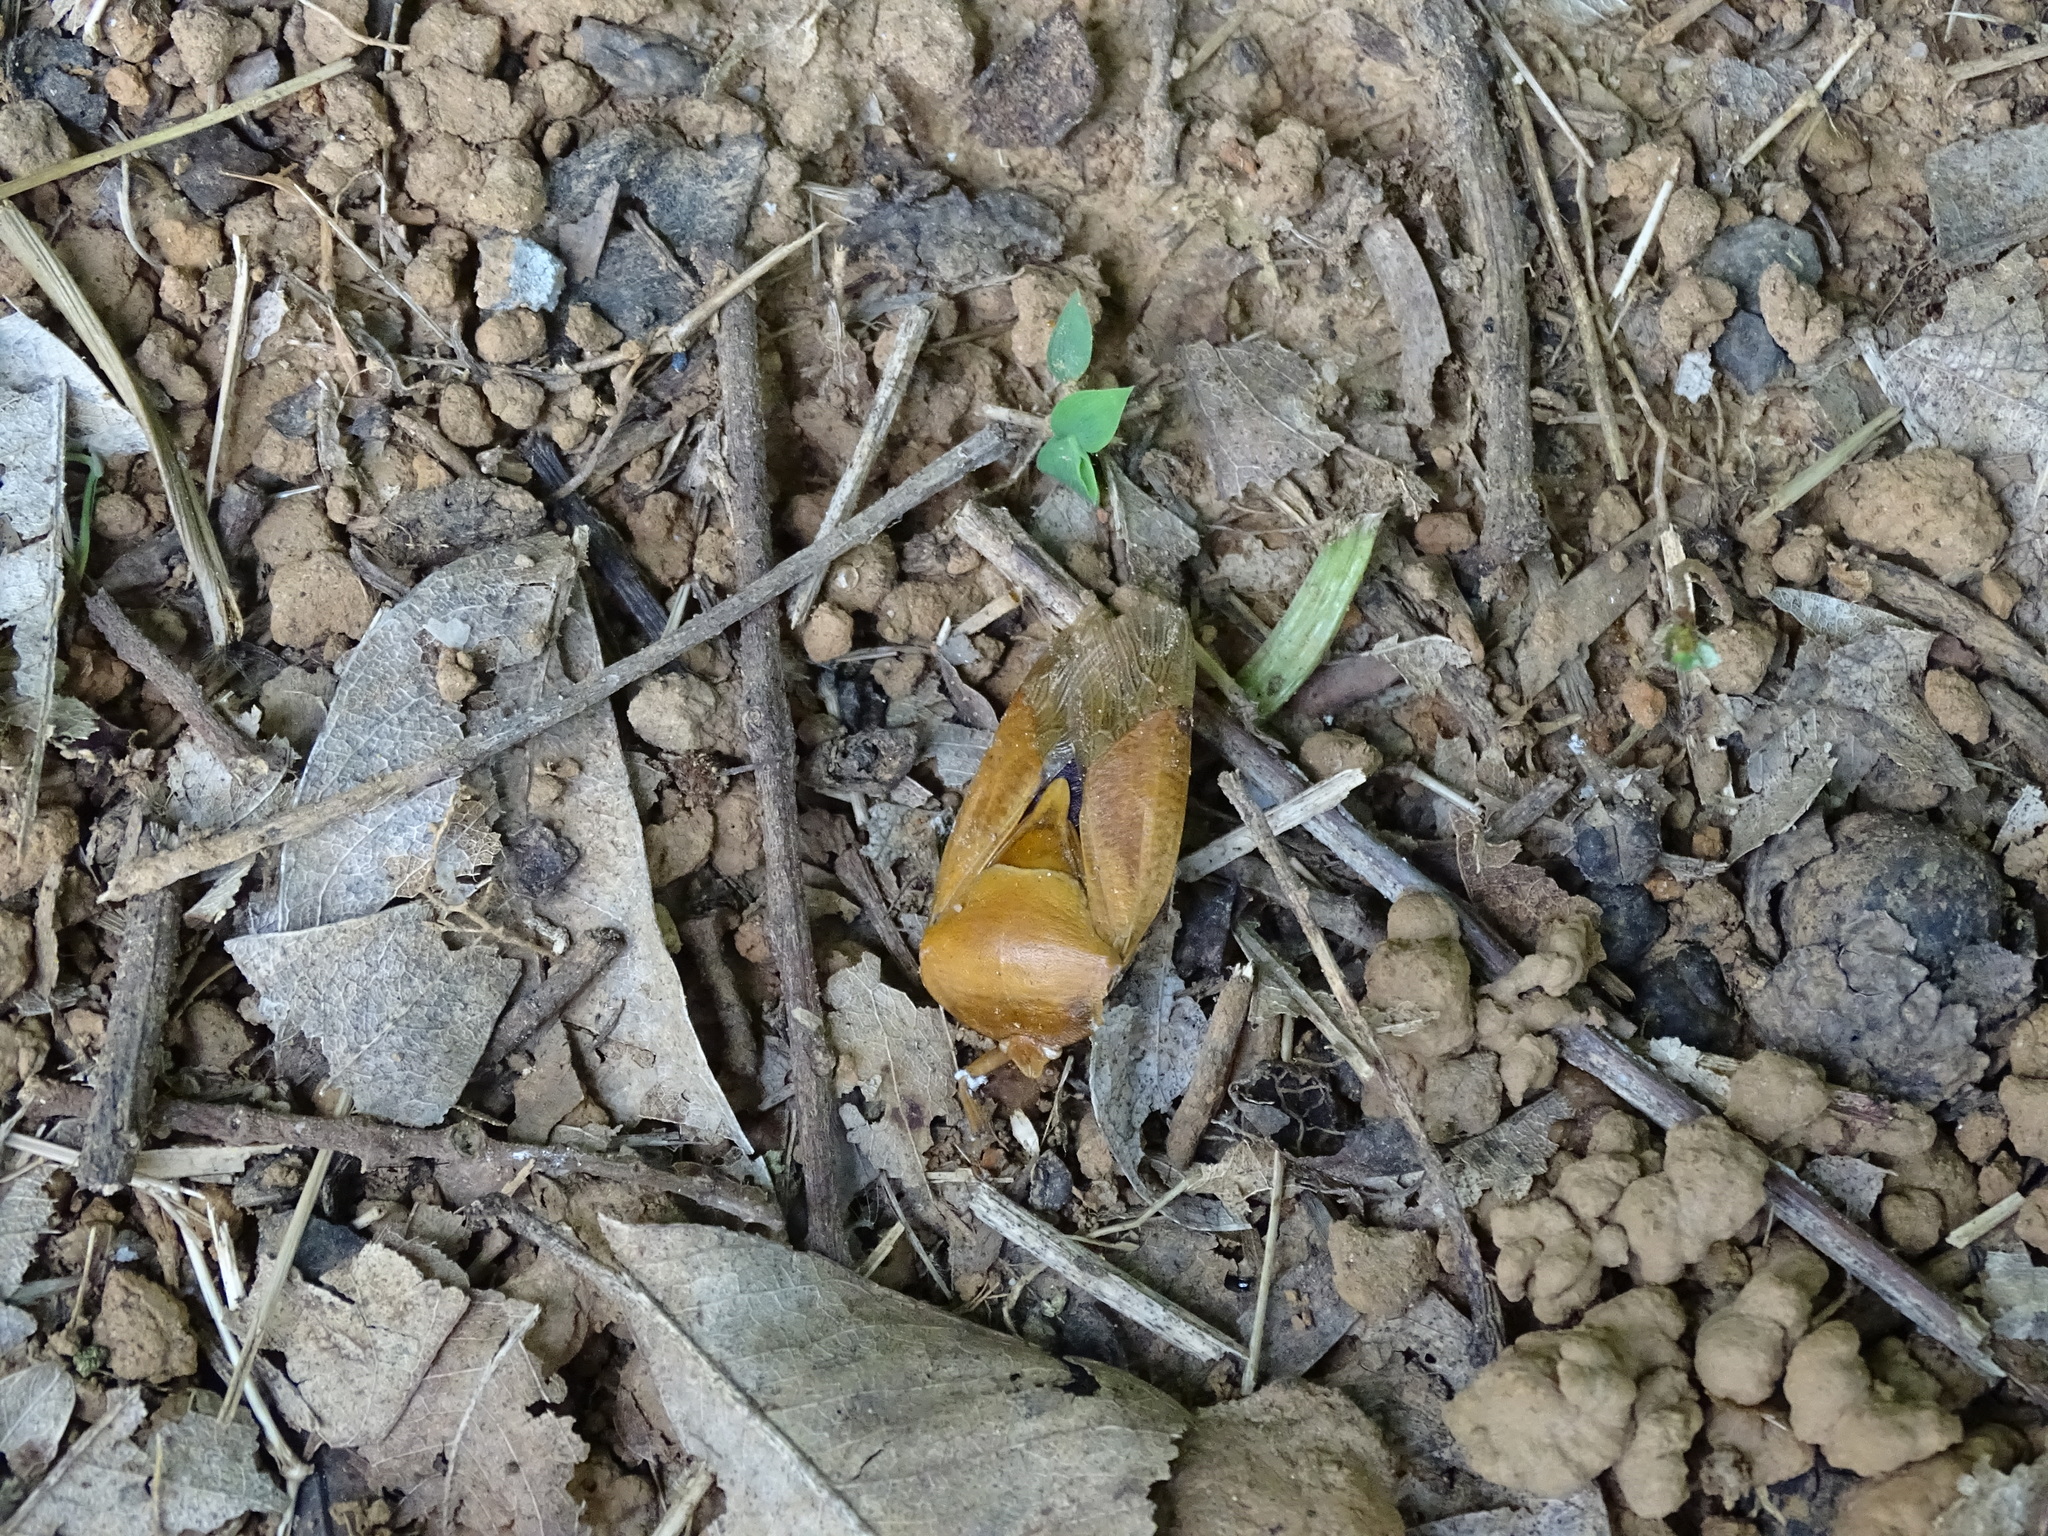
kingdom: Animalia
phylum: Arthropoda
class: Insecta
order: Hemiptera
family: Tessaratomidae
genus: Tessaratoma
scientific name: Tessaratoma papillosa
